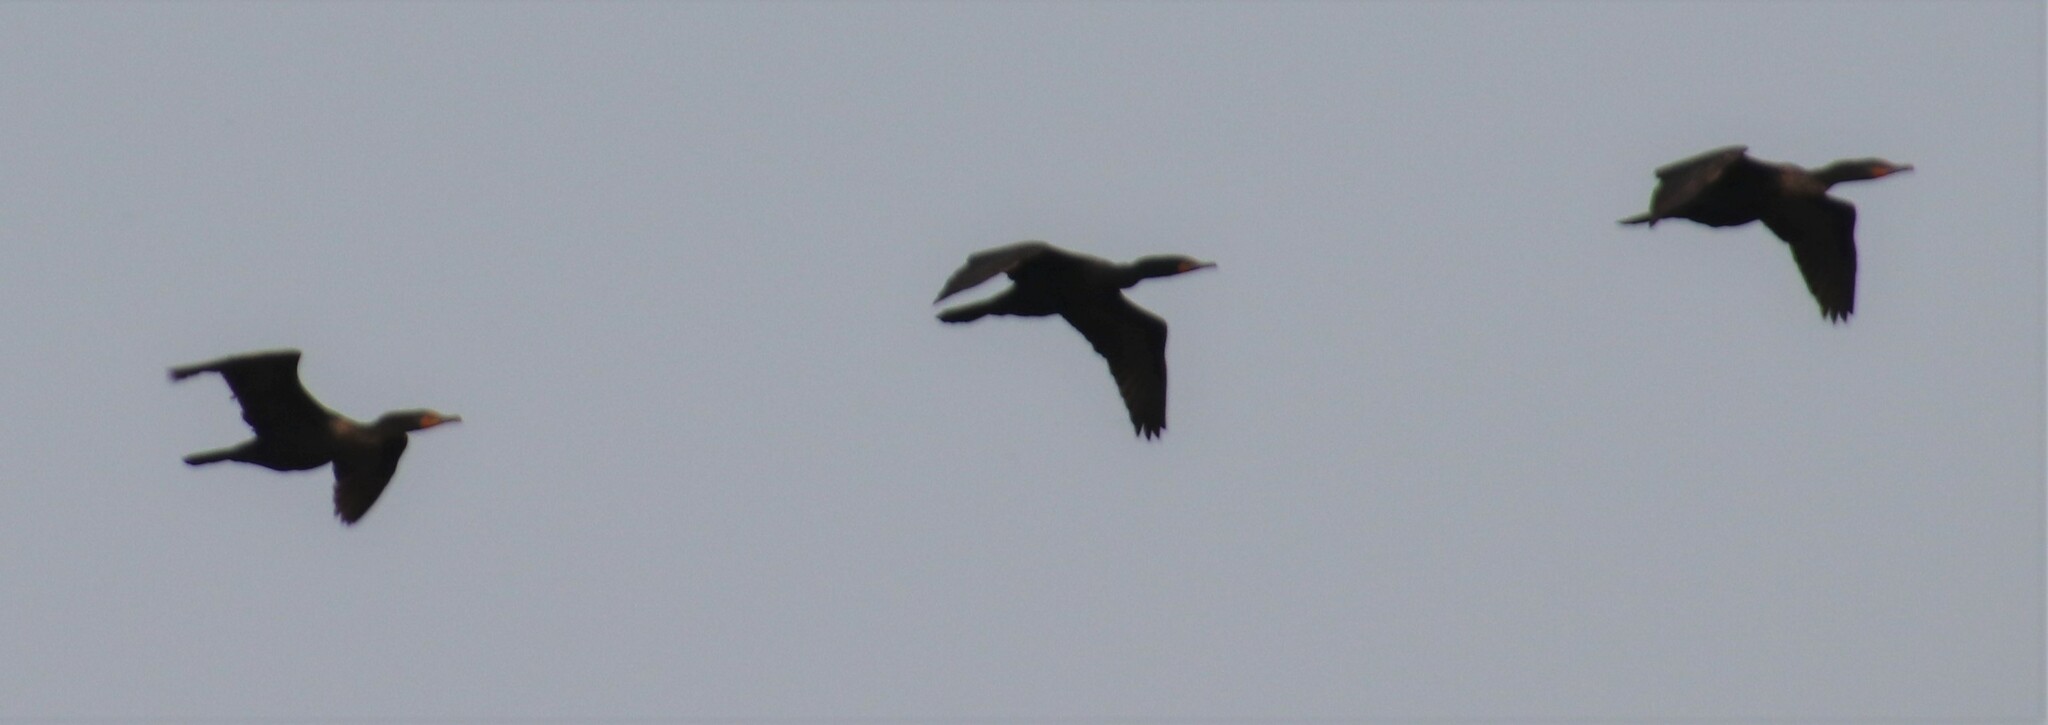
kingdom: Animalia
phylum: Chordata
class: Aves
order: Suliformes
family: Phalacrocoracidae
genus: Phalacrocorax
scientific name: Phalacrocorax auritus
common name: Double-crested cormorant
